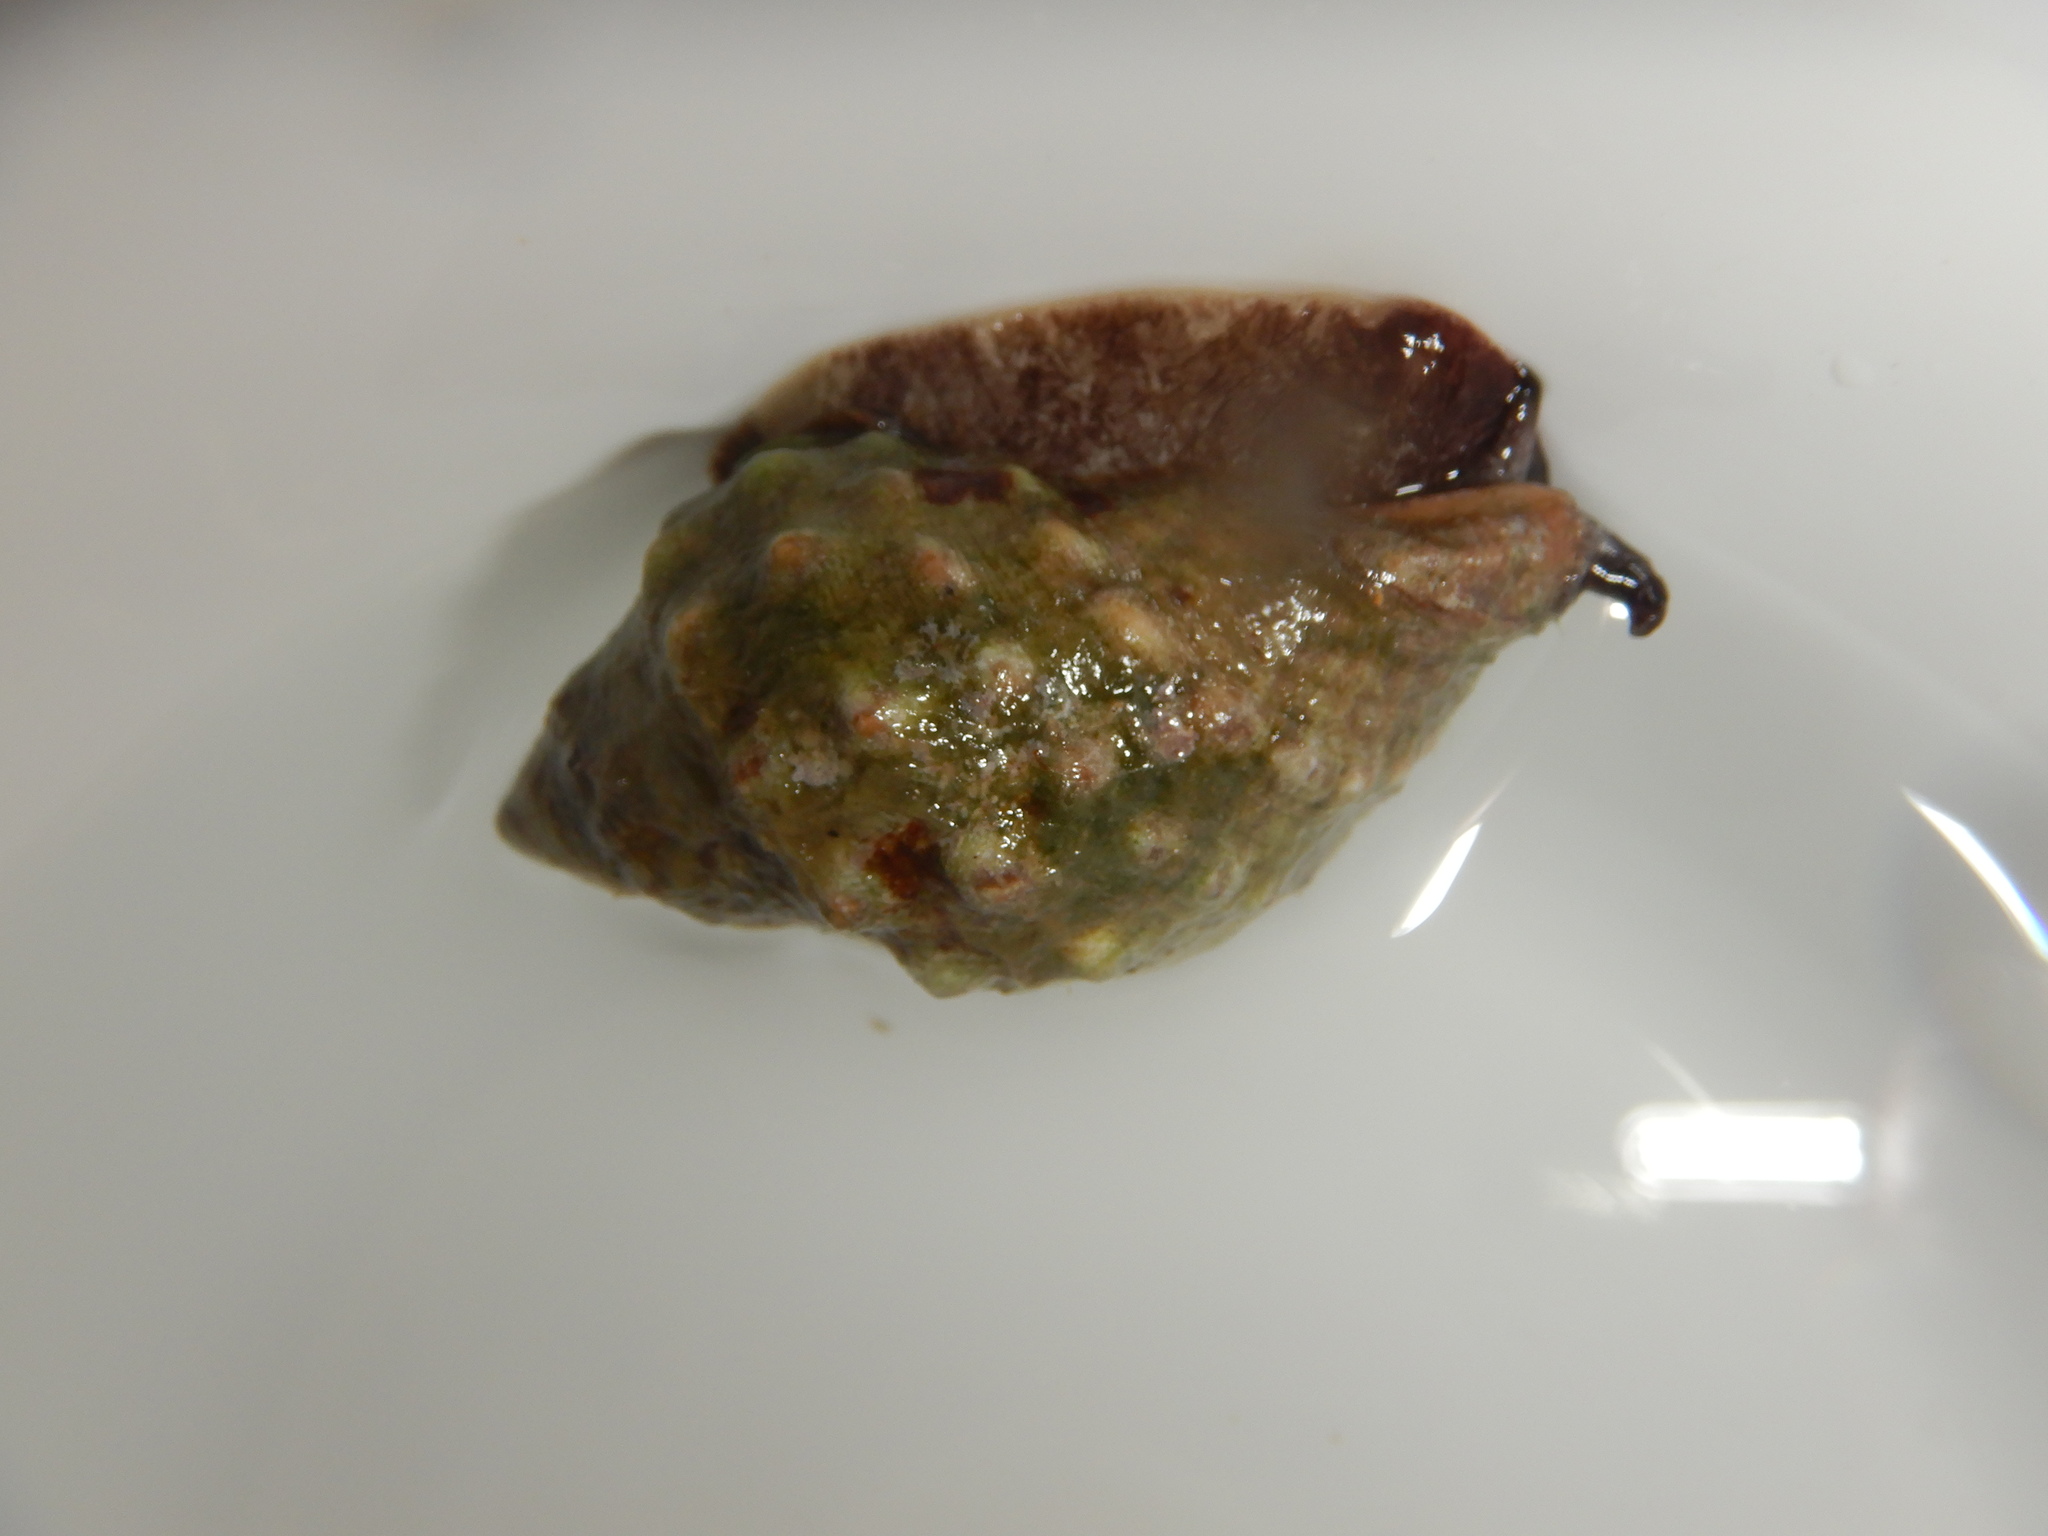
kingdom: Animalia
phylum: Mollusca
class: Gastropoda
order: Neogastropoda
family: Muricidae
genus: Stramonita
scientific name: Stramonita haemastoma
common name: Florida dog winkle
